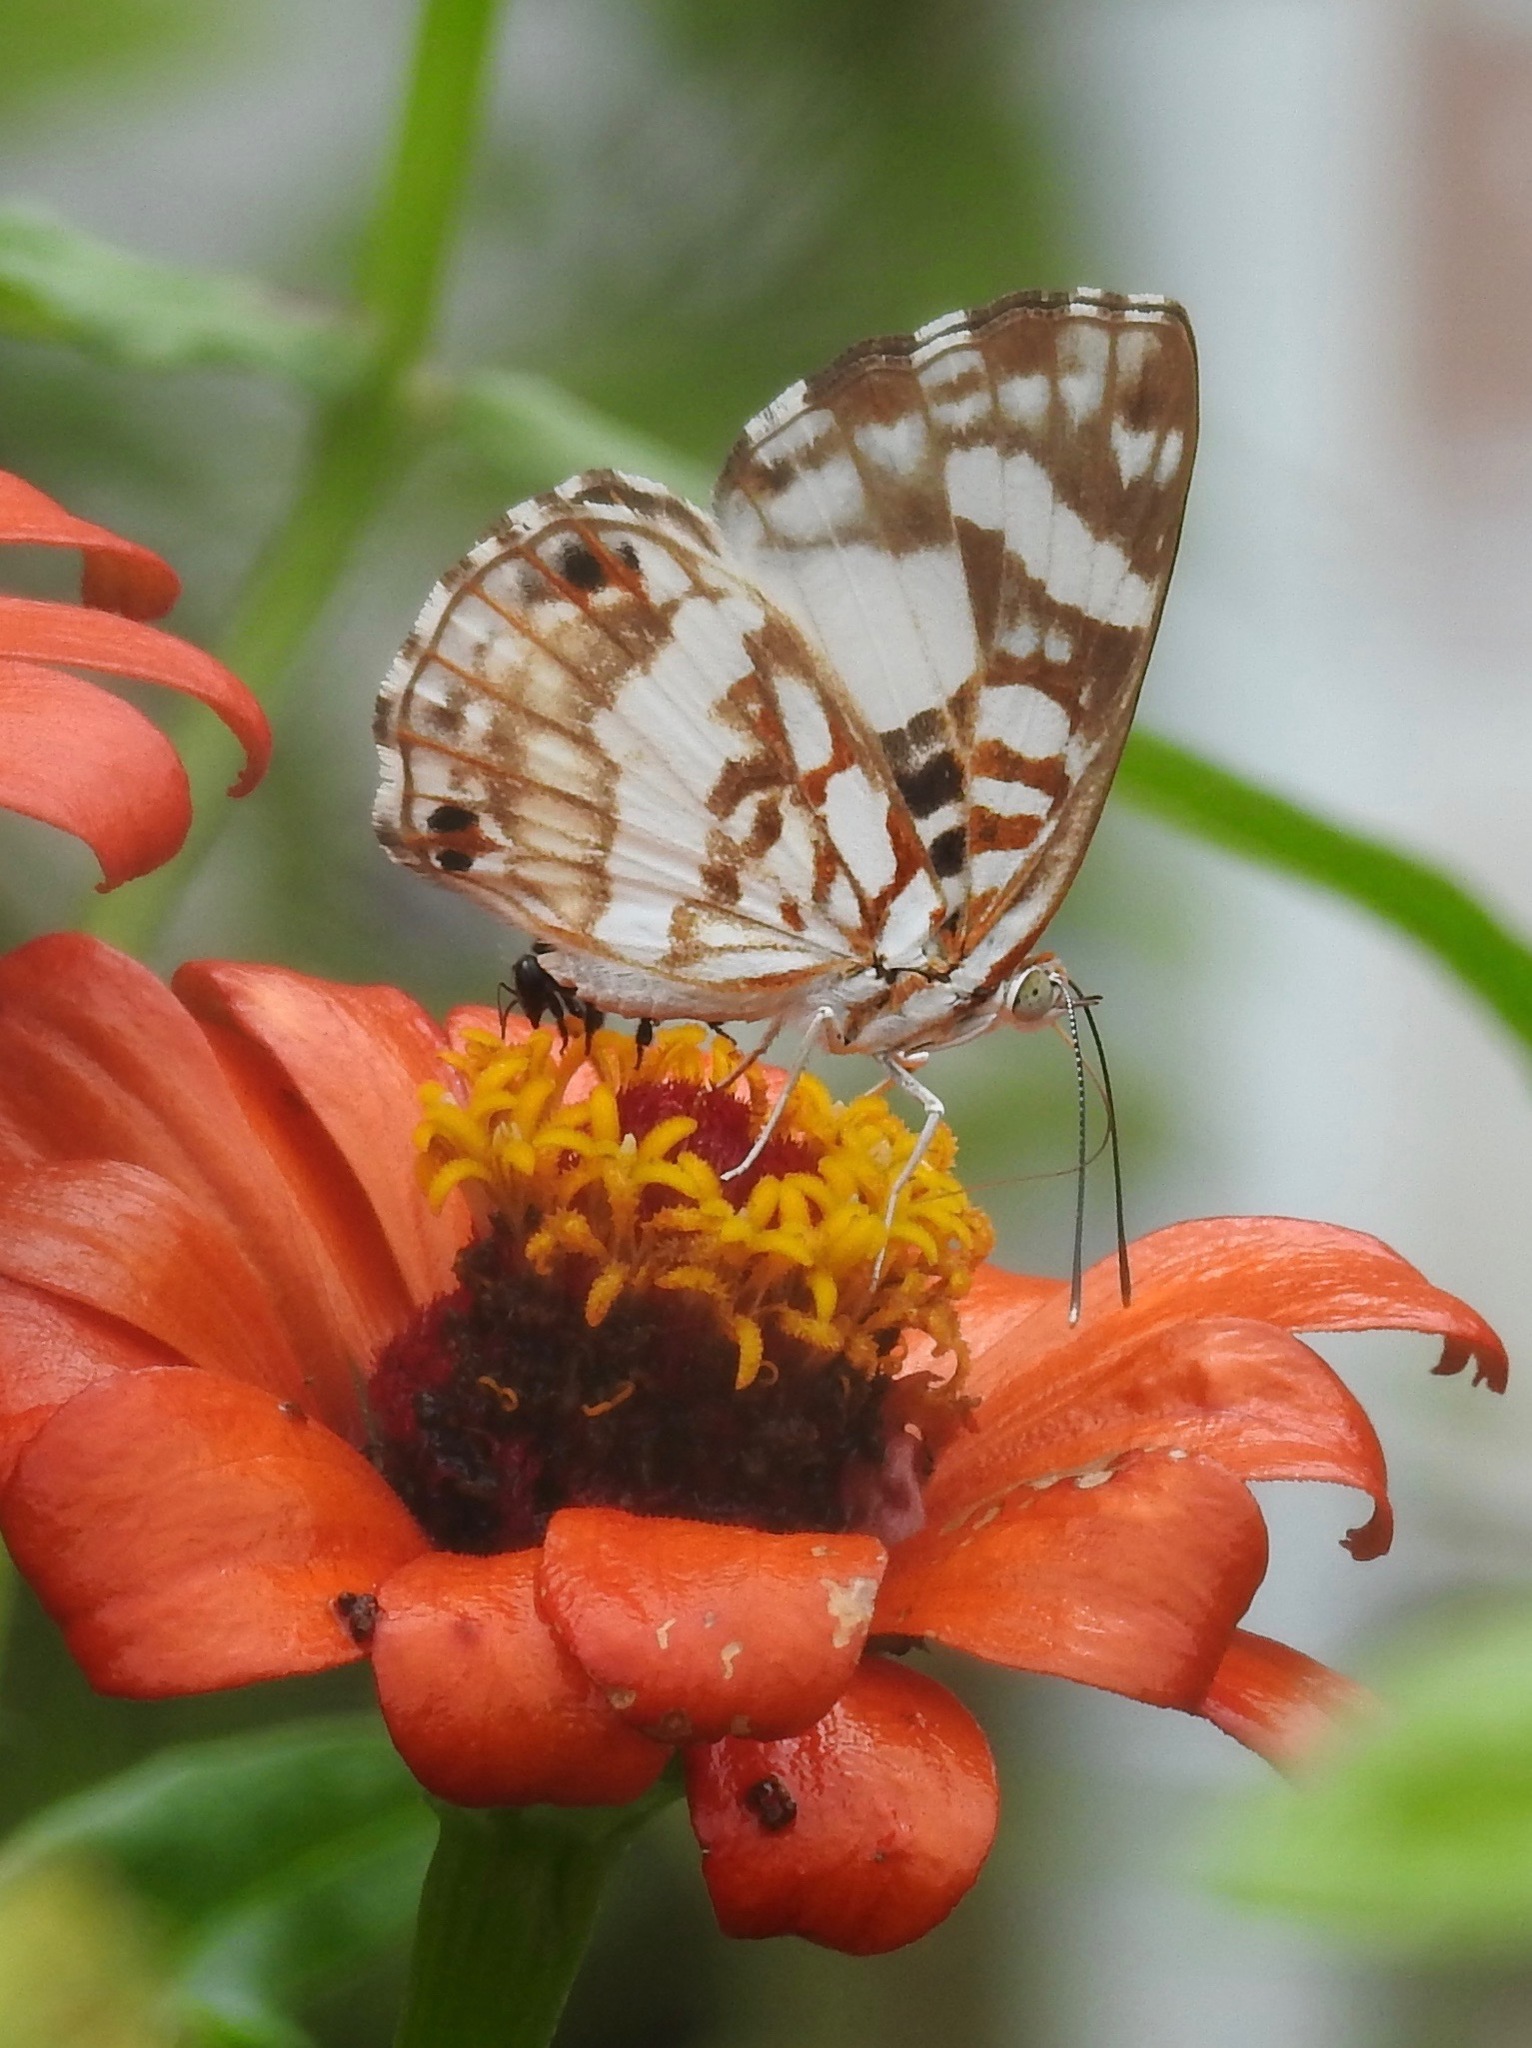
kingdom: Animalia
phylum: Arthropoda
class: Insecta
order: Lepidoptera
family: Riodinidae
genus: Ariconias
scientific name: Ariconias
